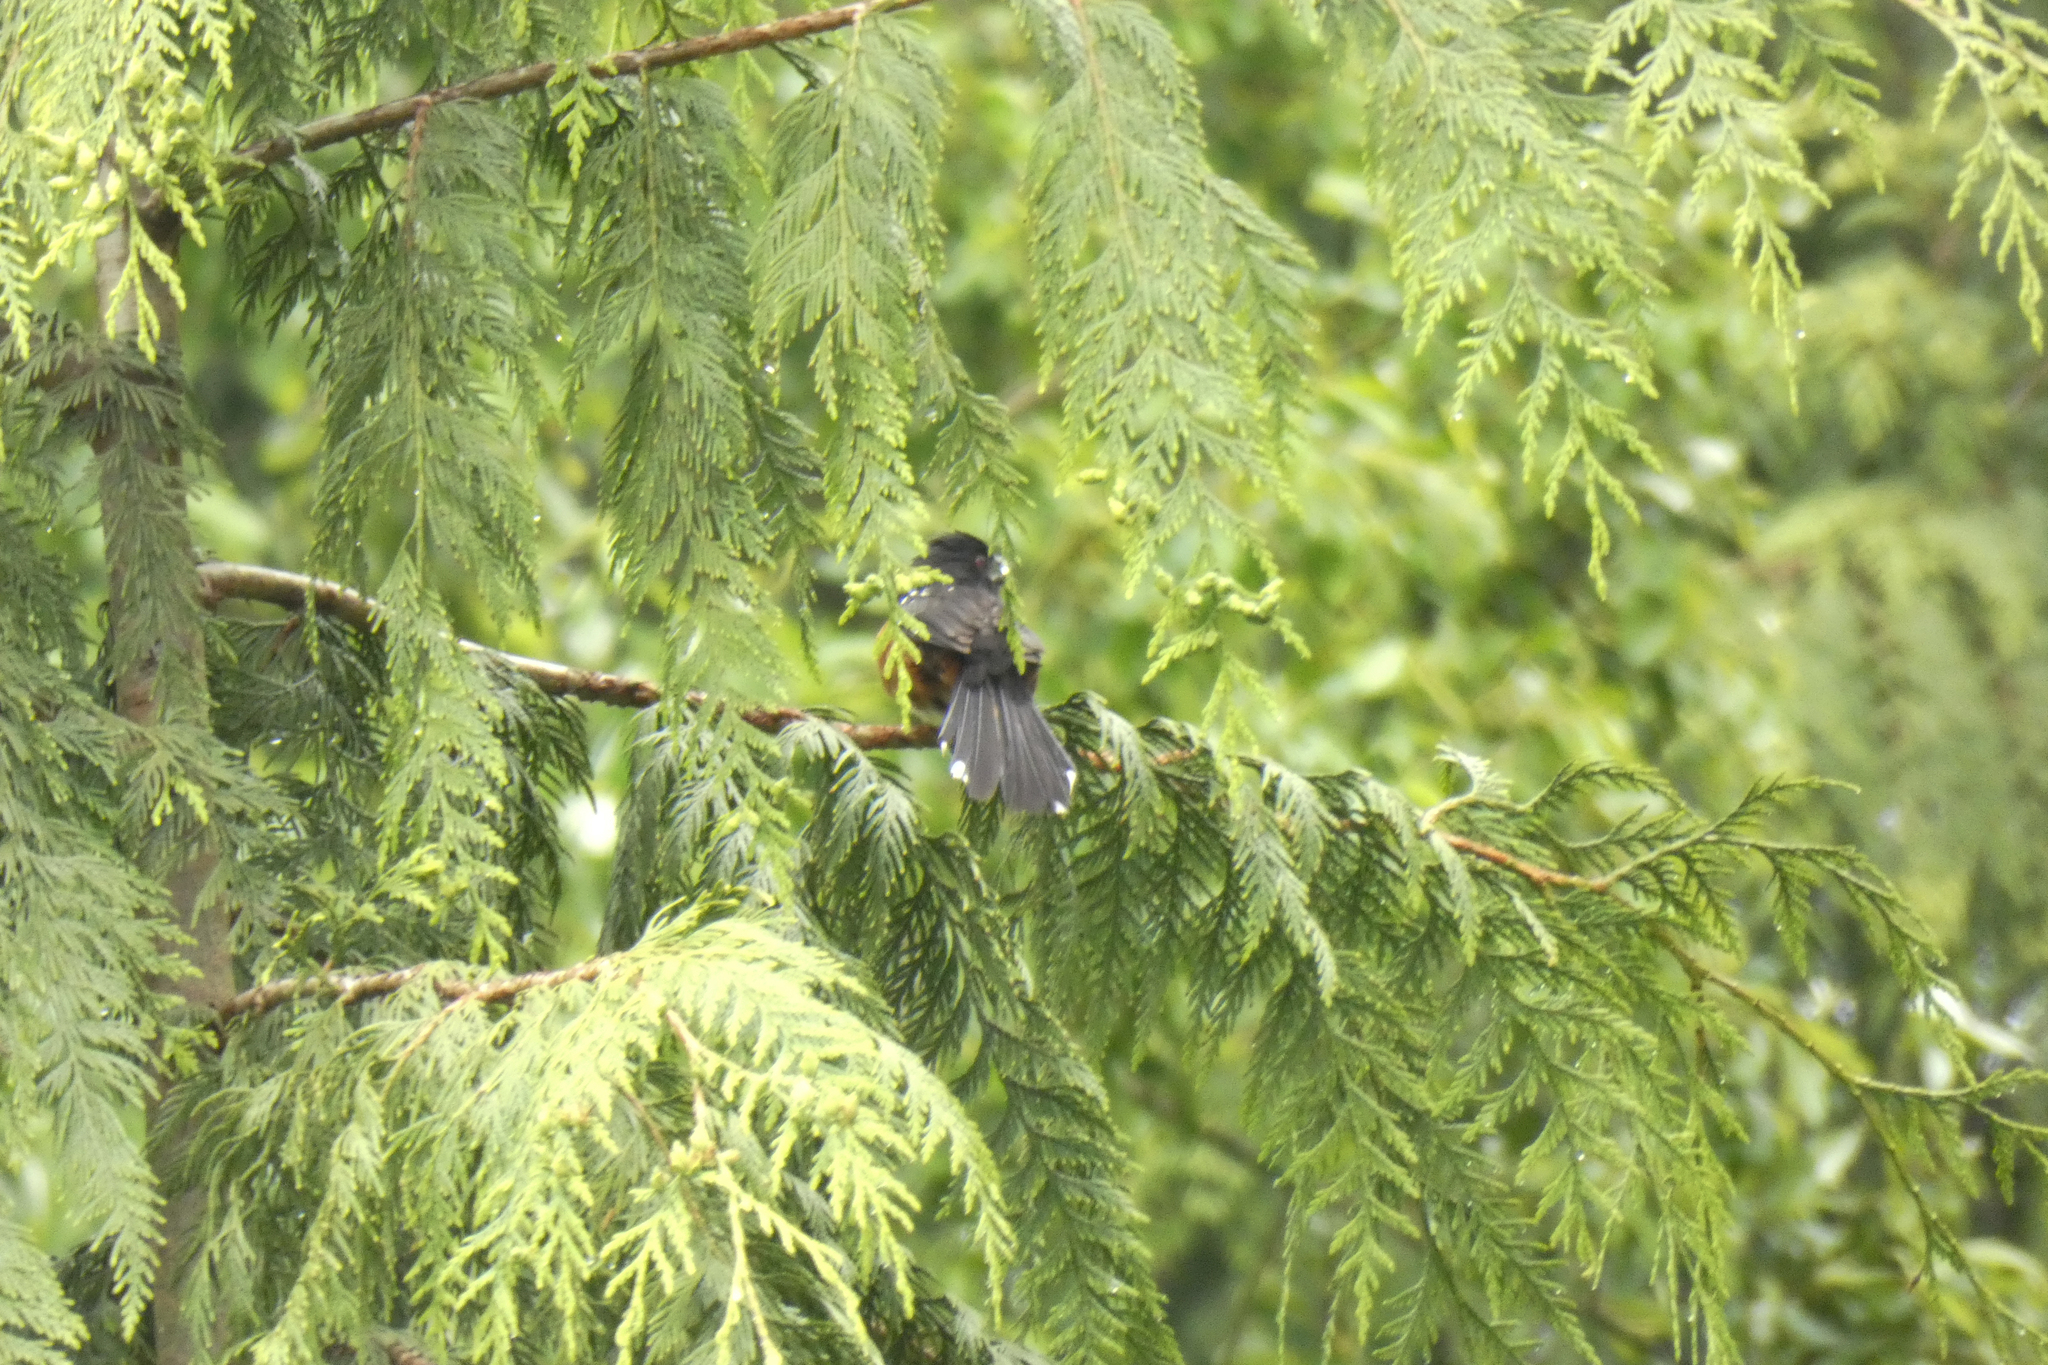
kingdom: Animalia
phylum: Chordata
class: Aves
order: Passeriformes
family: Passerellidae
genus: Pipilo
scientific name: Pipilo maculatus
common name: Spotted towhee
